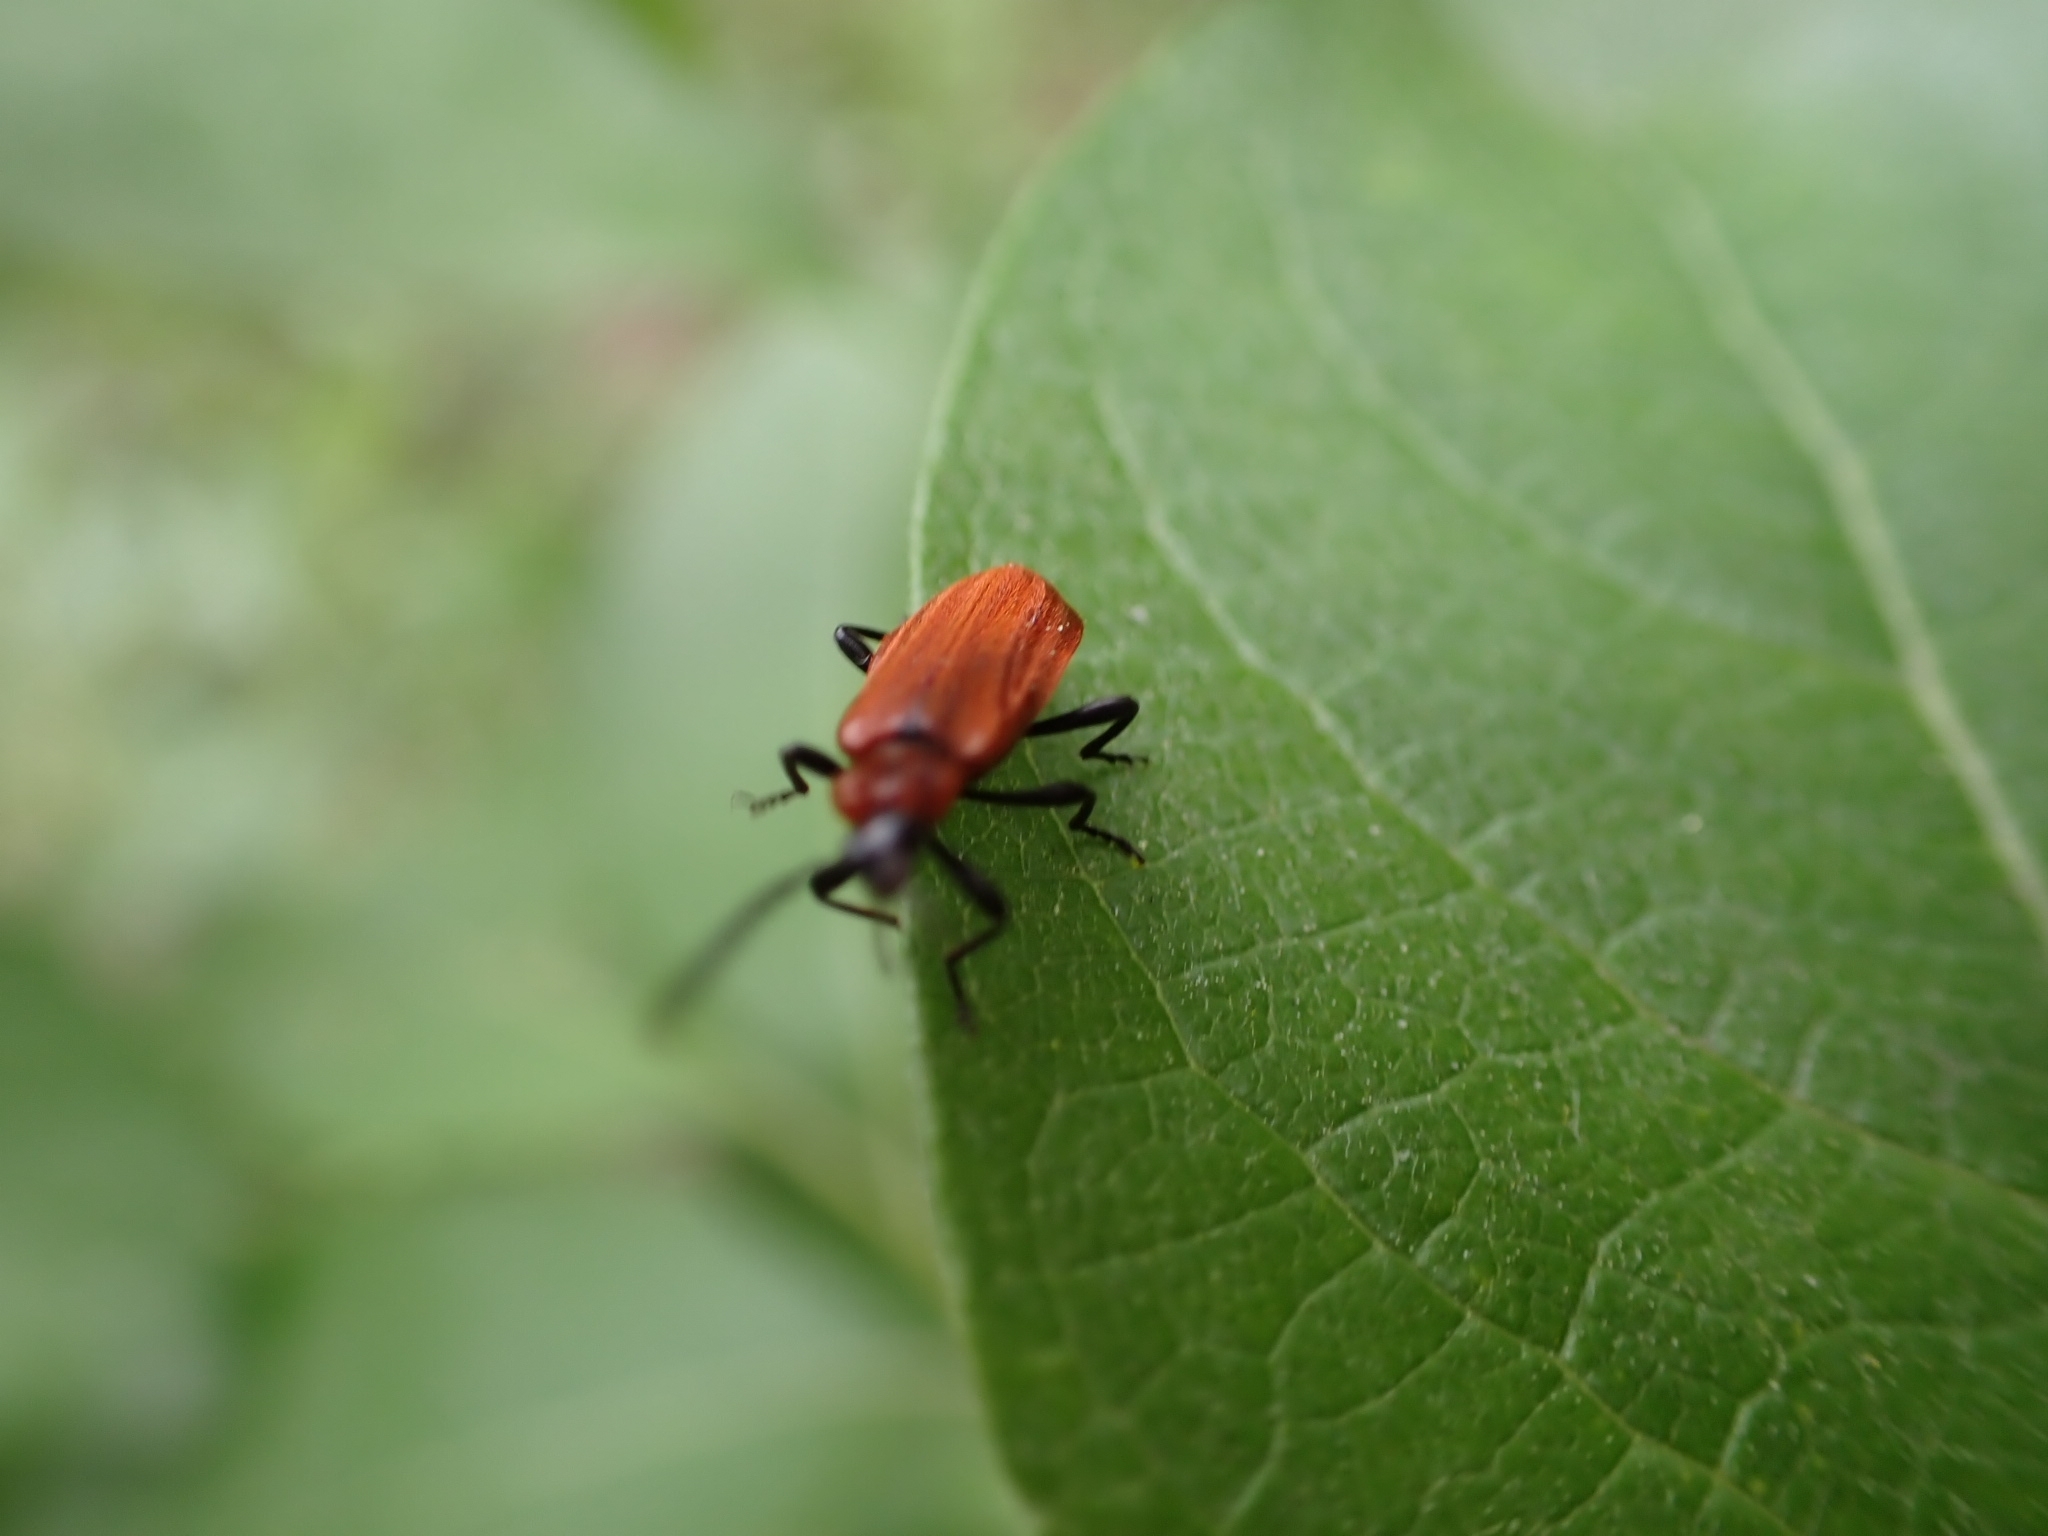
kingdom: Animalia
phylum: Arthropoda
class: Insecta
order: Coleoptera
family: Pyrochroidae
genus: Schizotus
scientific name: Schizotus pectinicornis
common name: Scarce cardinal beetle
